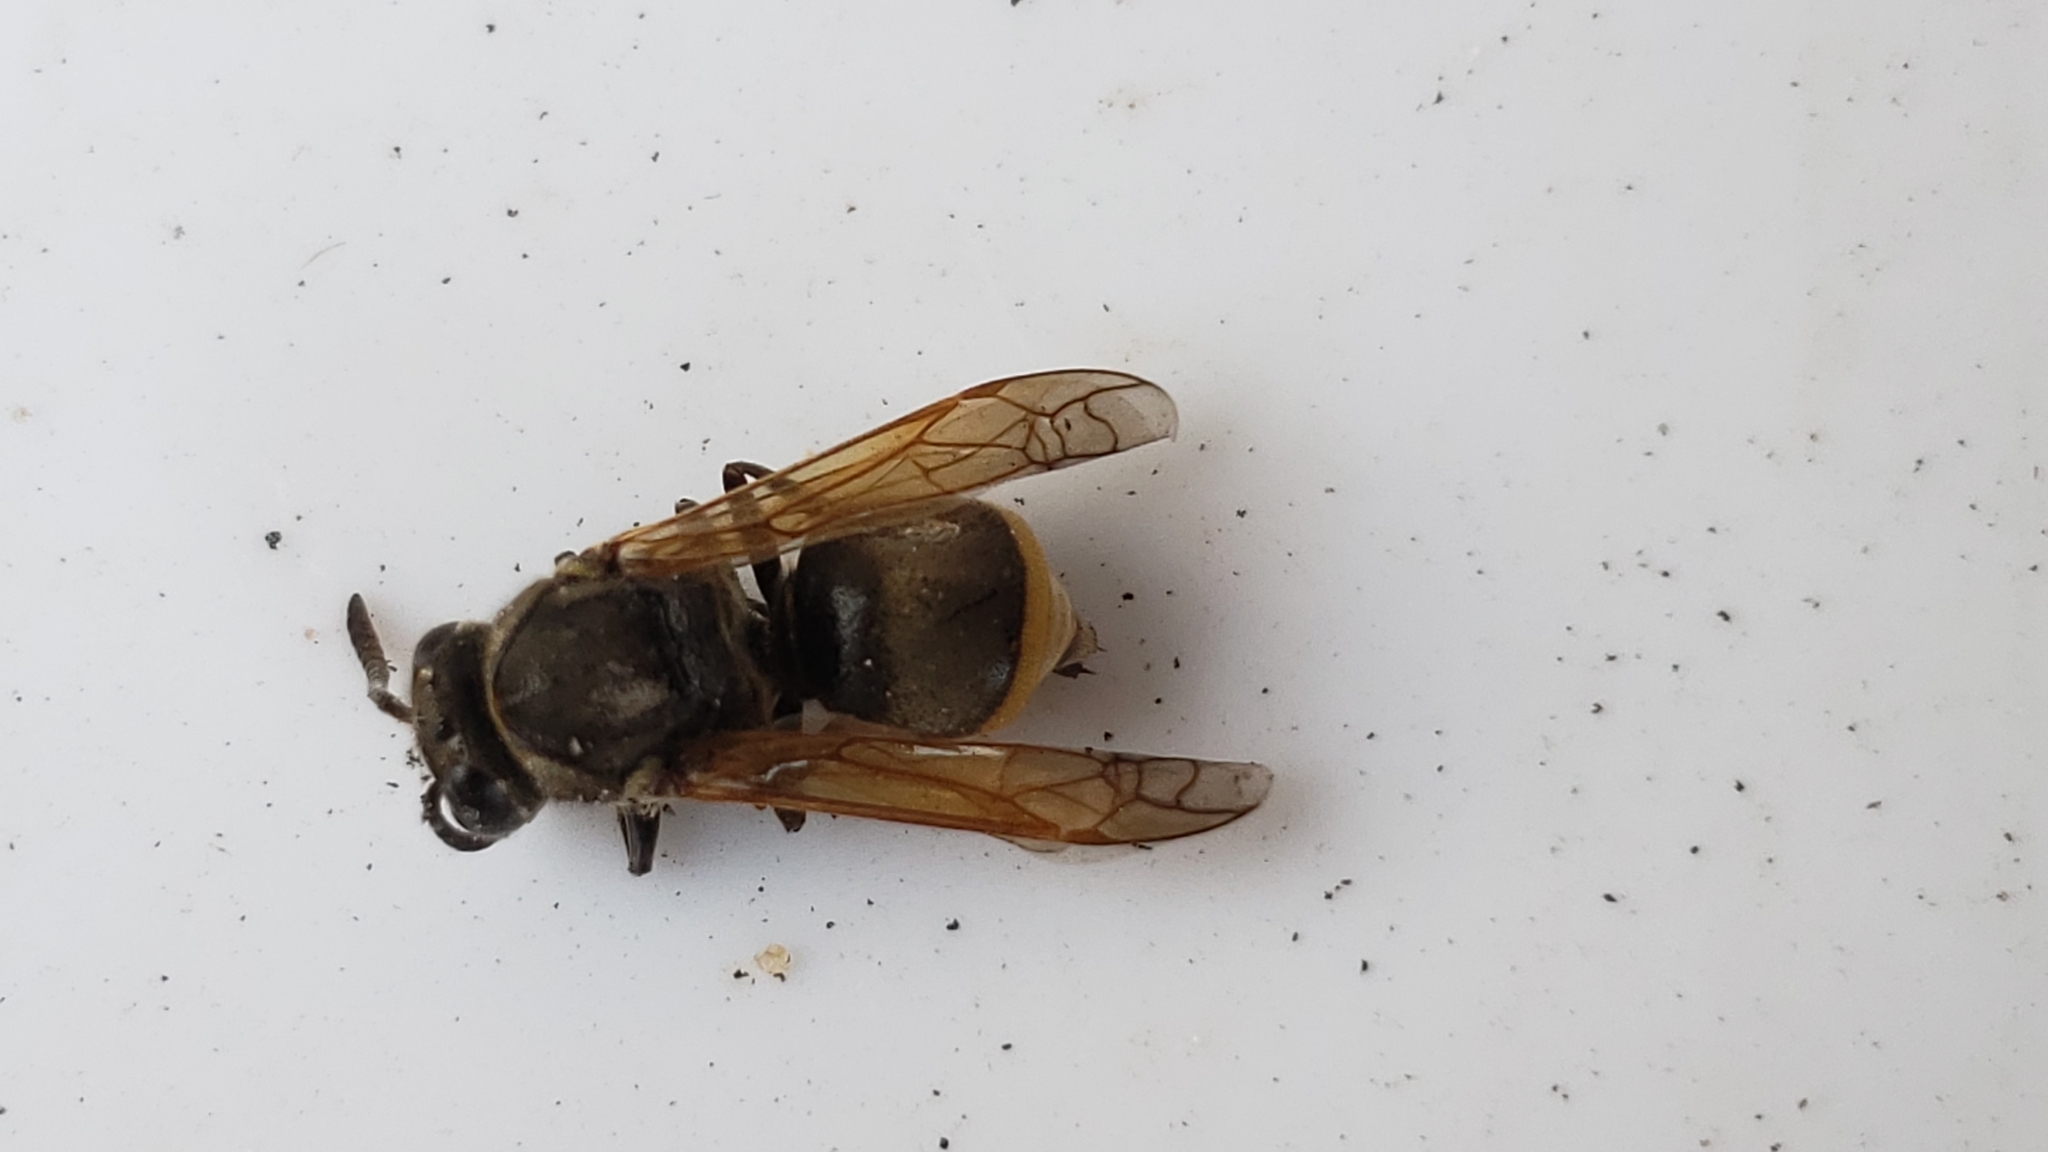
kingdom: Animalia
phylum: Arthropoda
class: Insecta
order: Hymenoptera
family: Vespidae
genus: Brachygastra
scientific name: Brachygastra mellifica
